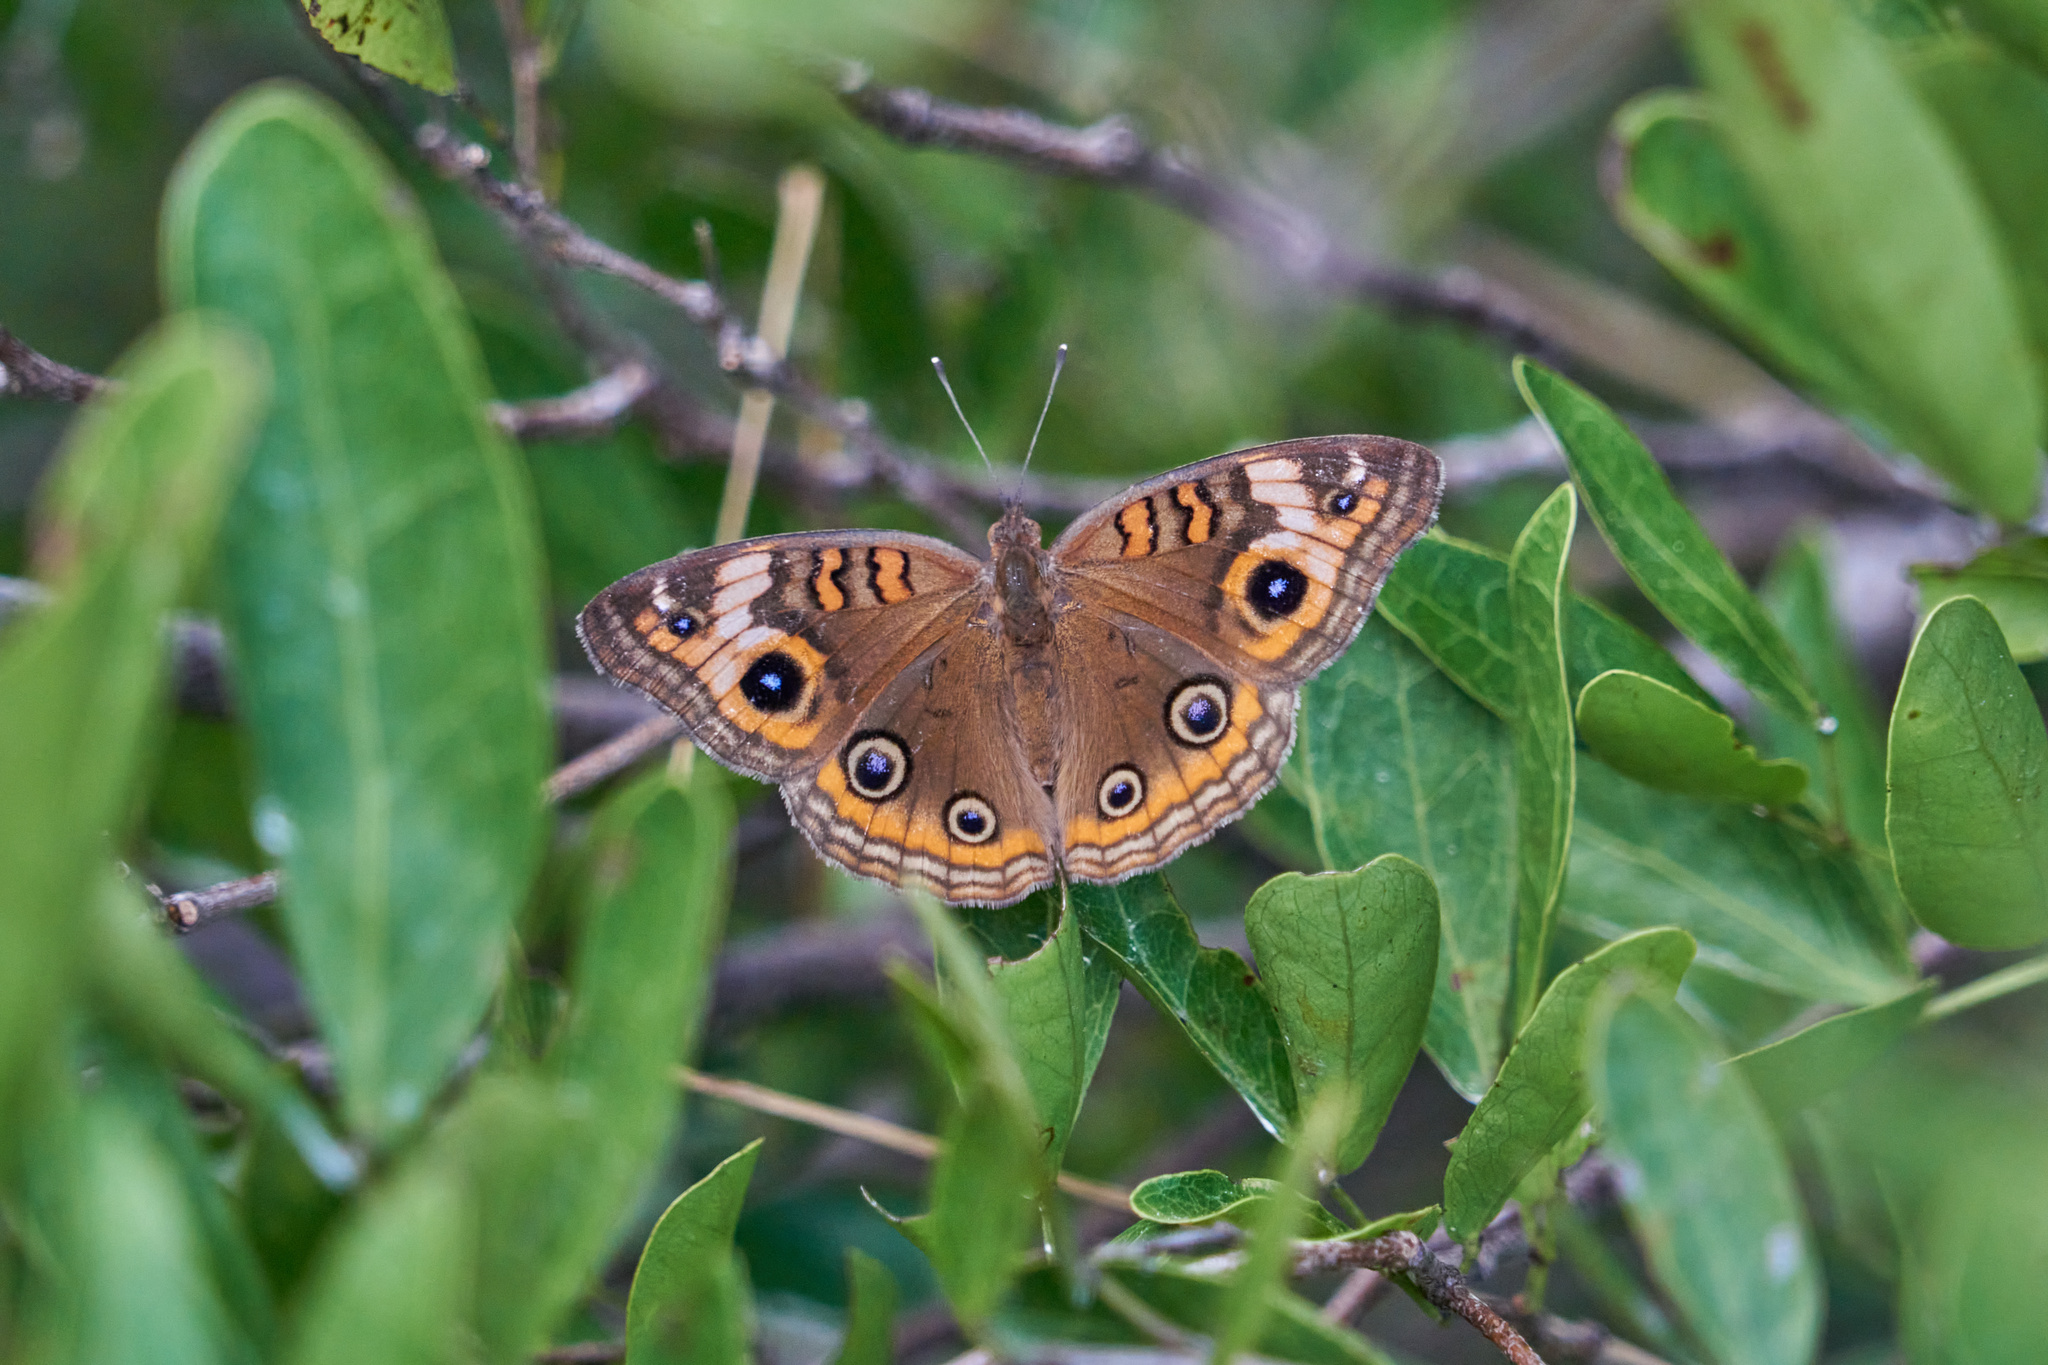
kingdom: Animalia
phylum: Arthropoda
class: Insecta
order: Lepidoptera
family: Nymphalidae
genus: Junonia
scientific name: Junonia neildi
